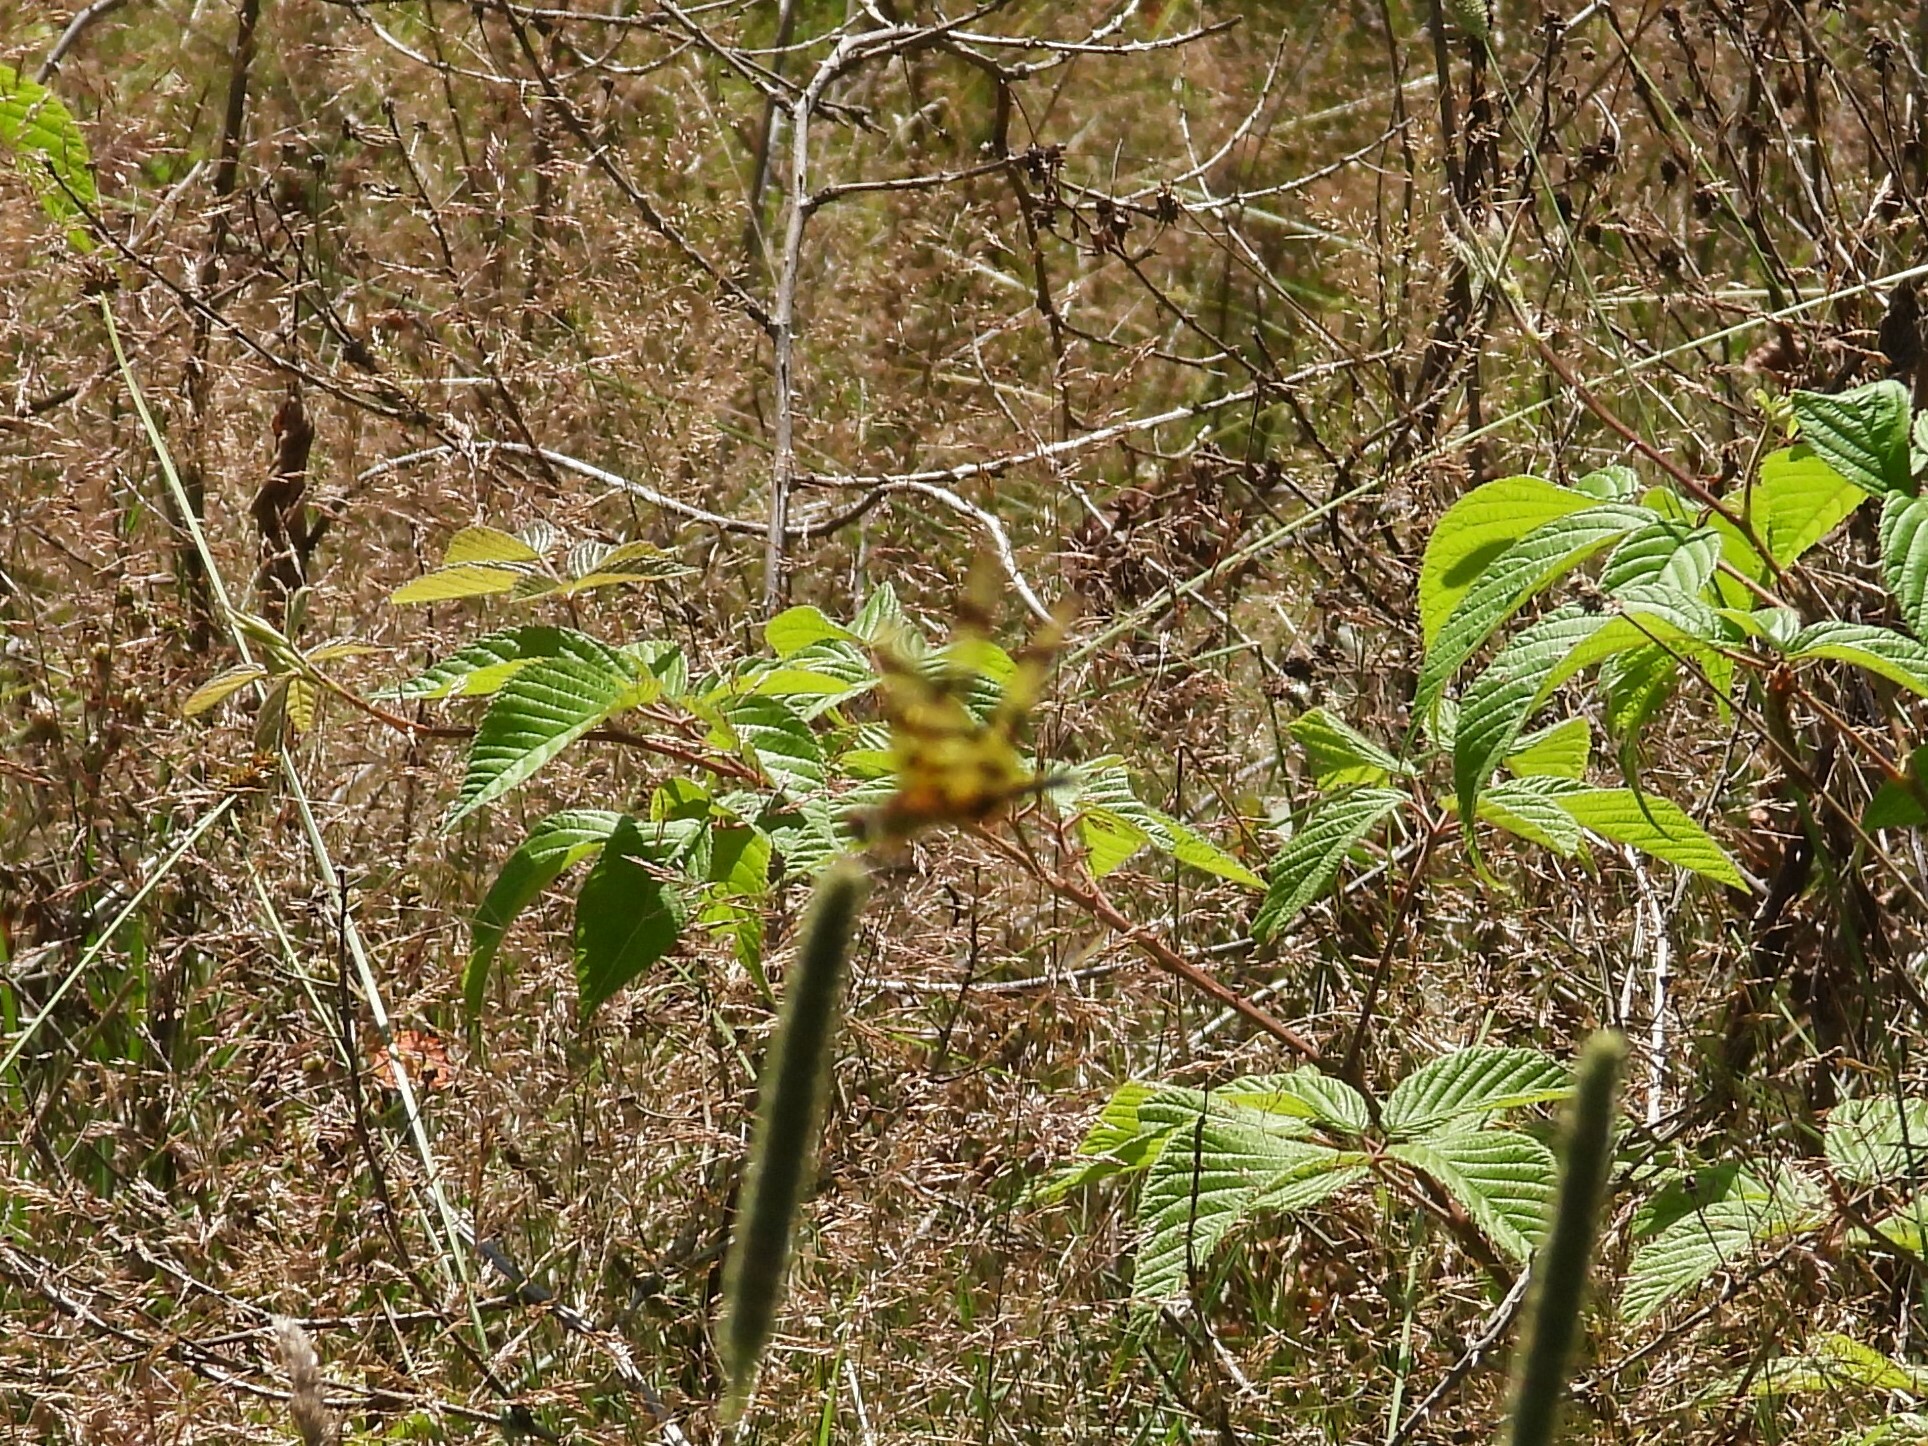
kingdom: Animalia
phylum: Arthropoda
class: Insecta
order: Odonata
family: Libellulidae
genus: Celithemis
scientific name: Celithemis eponina
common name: Halloween pennant
